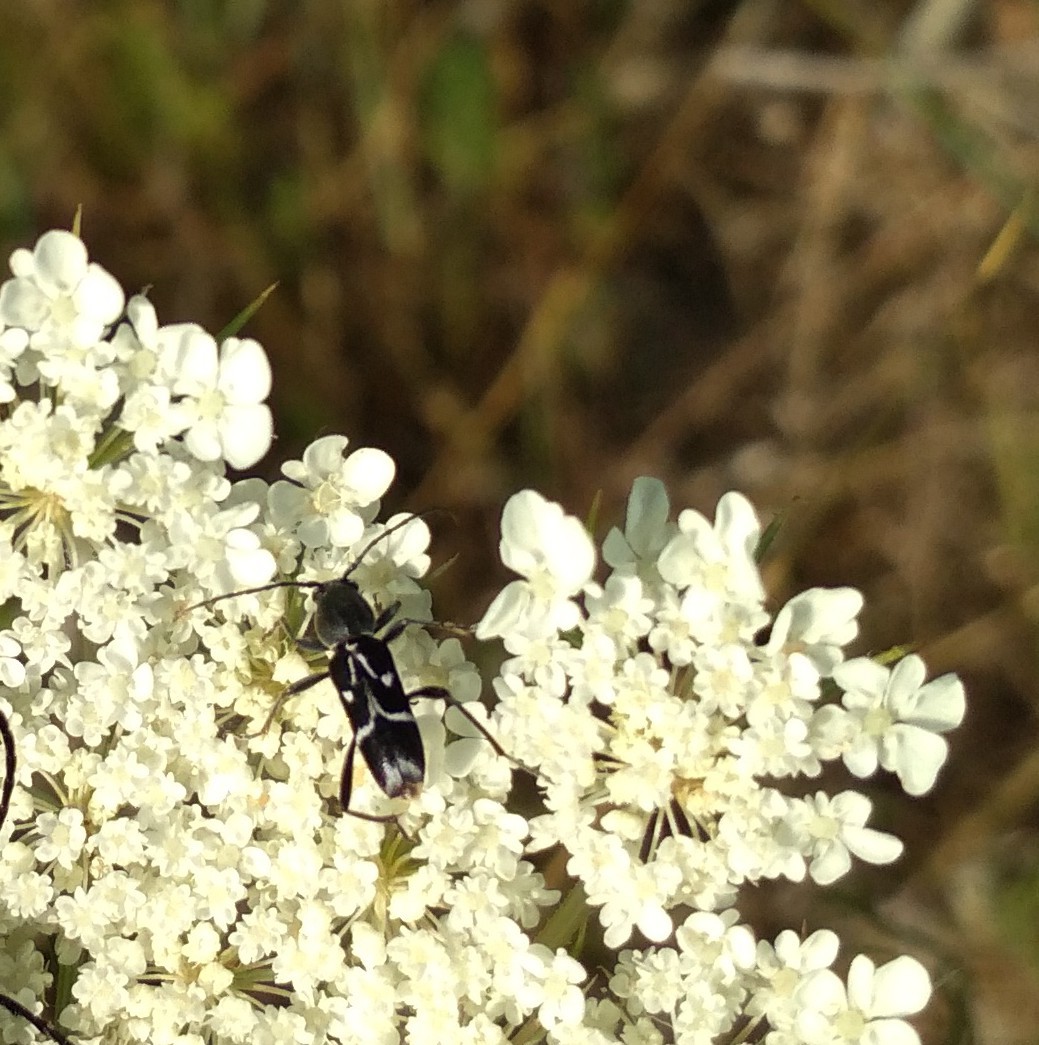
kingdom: Animalia
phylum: Arthropoda
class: Insecta
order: Coleoptera
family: Cerambycidae
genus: Chlorophorus
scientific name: Chlorophorus sartor
